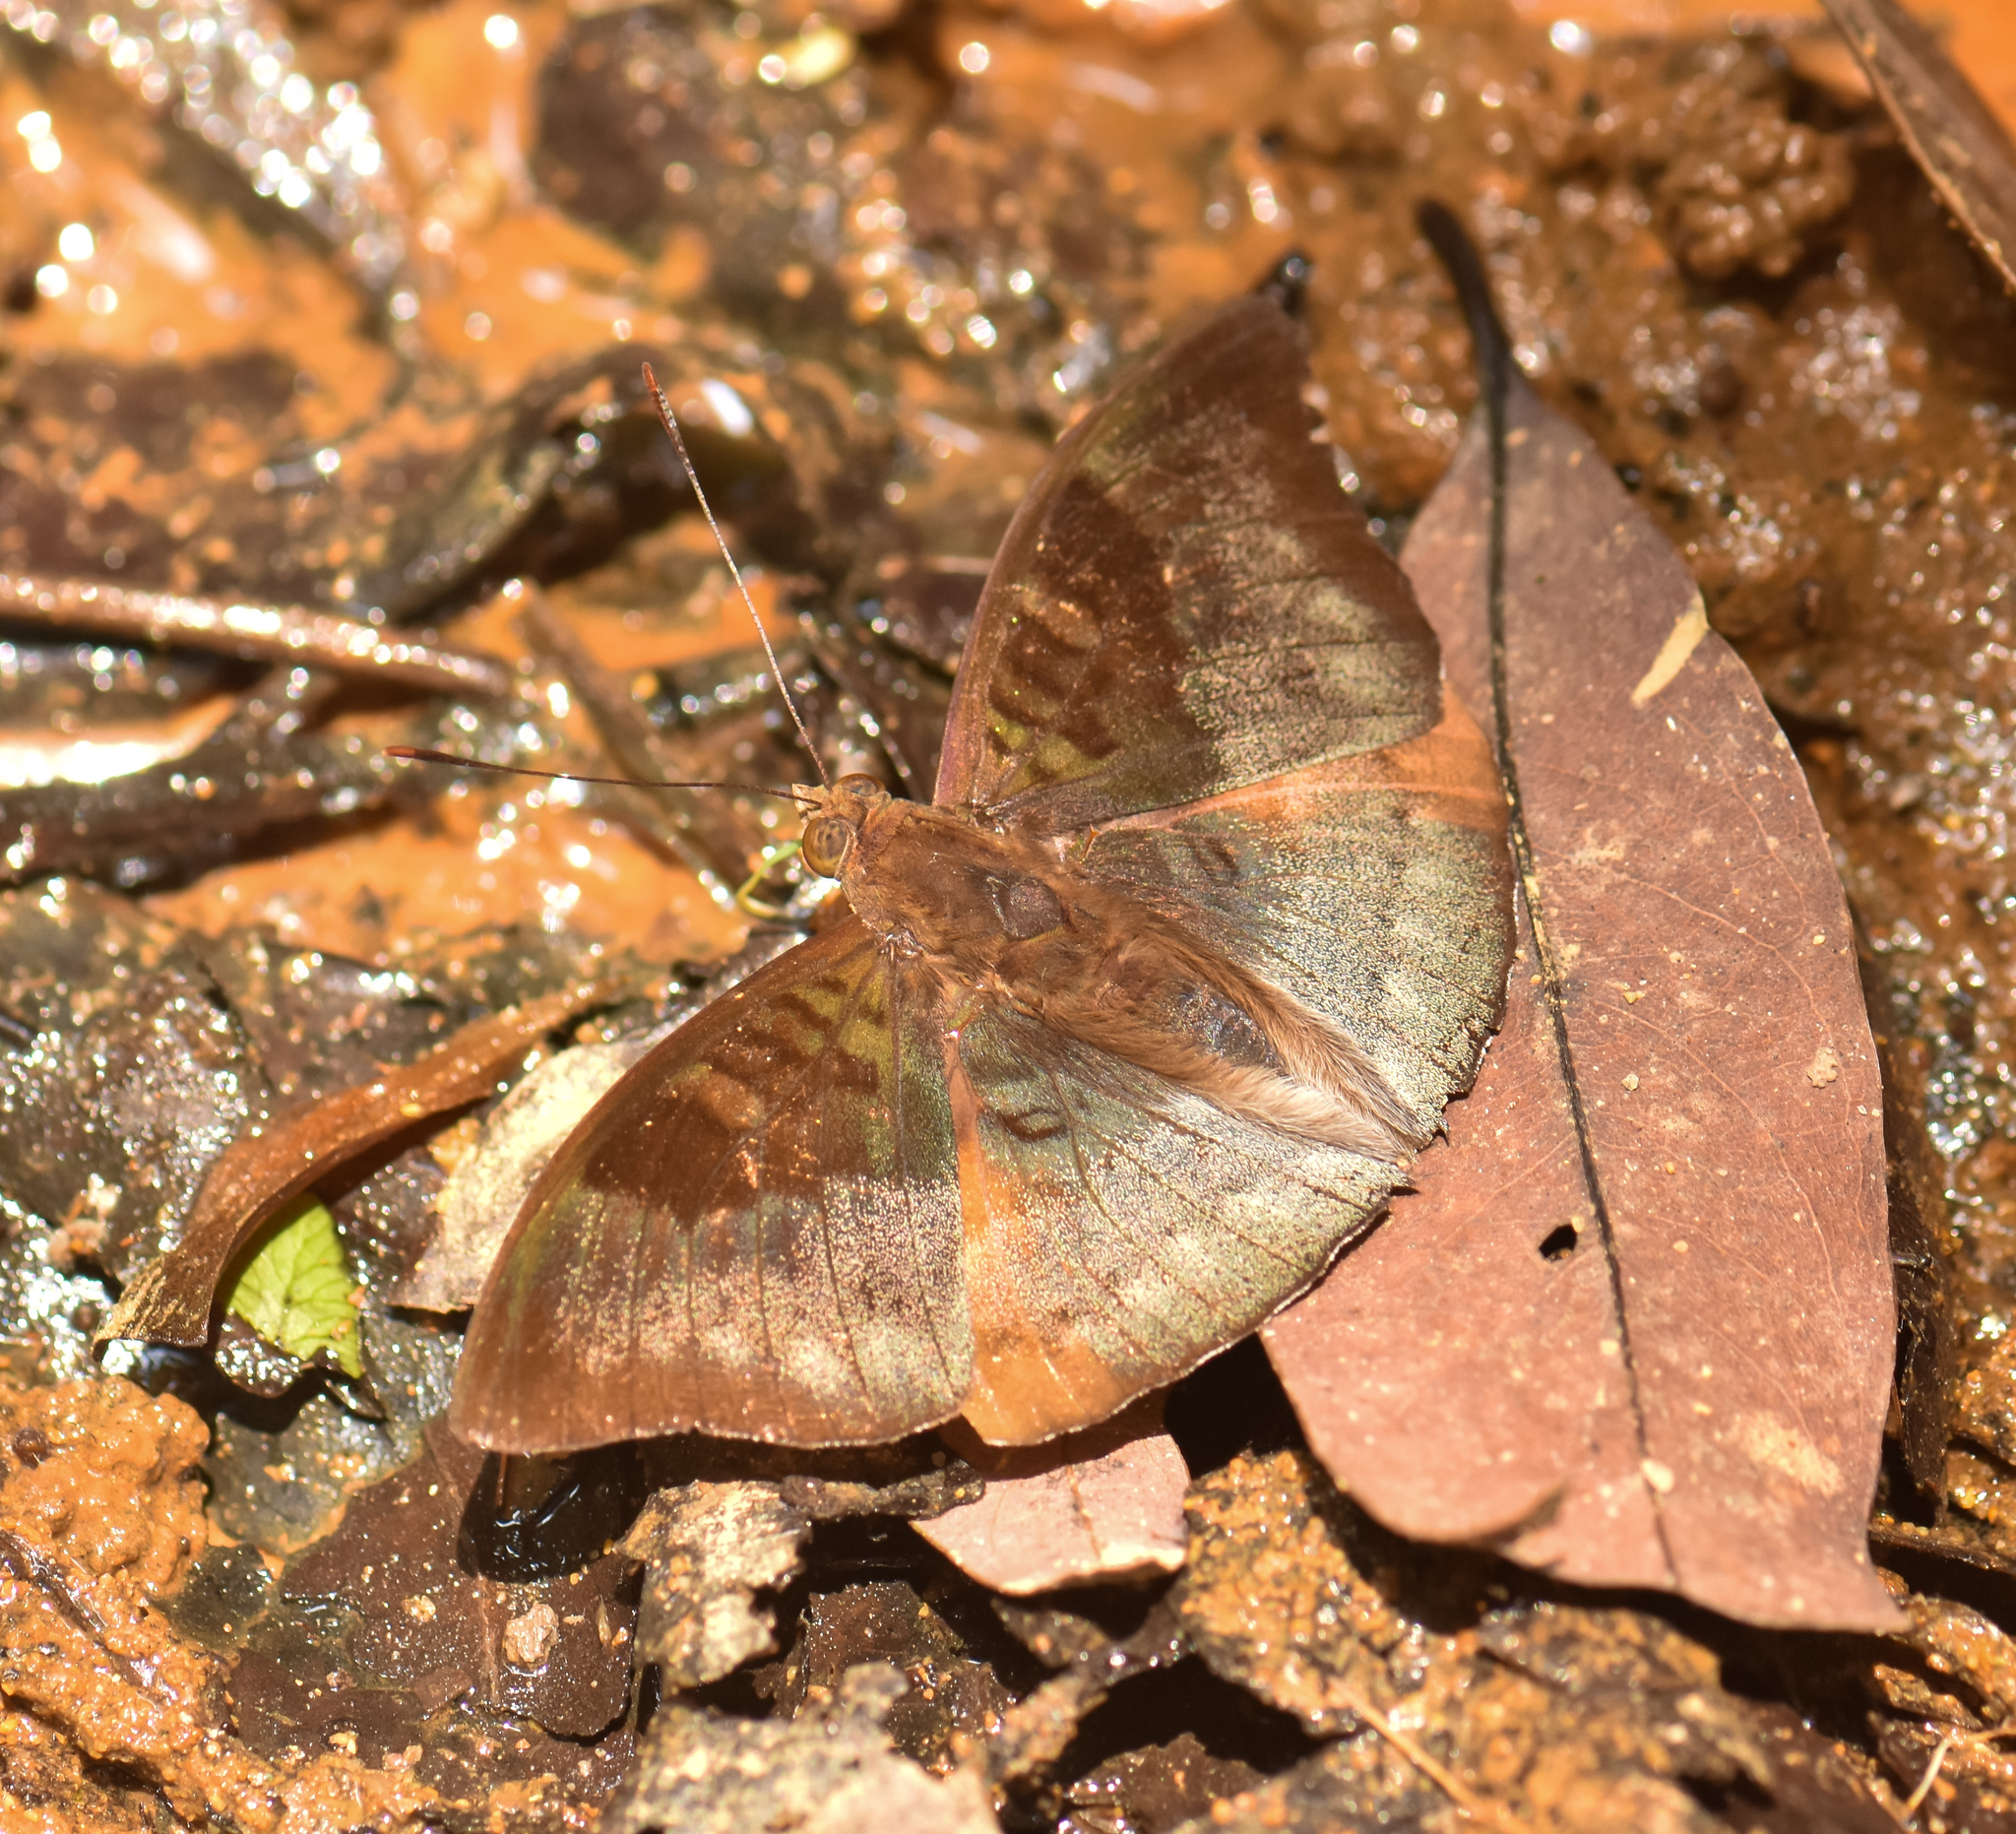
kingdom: Animalia
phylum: Arthropoda
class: Insecta
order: Lepidoptera
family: Nymphalidae
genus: Euthalia
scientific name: Euthalia monina
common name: Powdered baron
